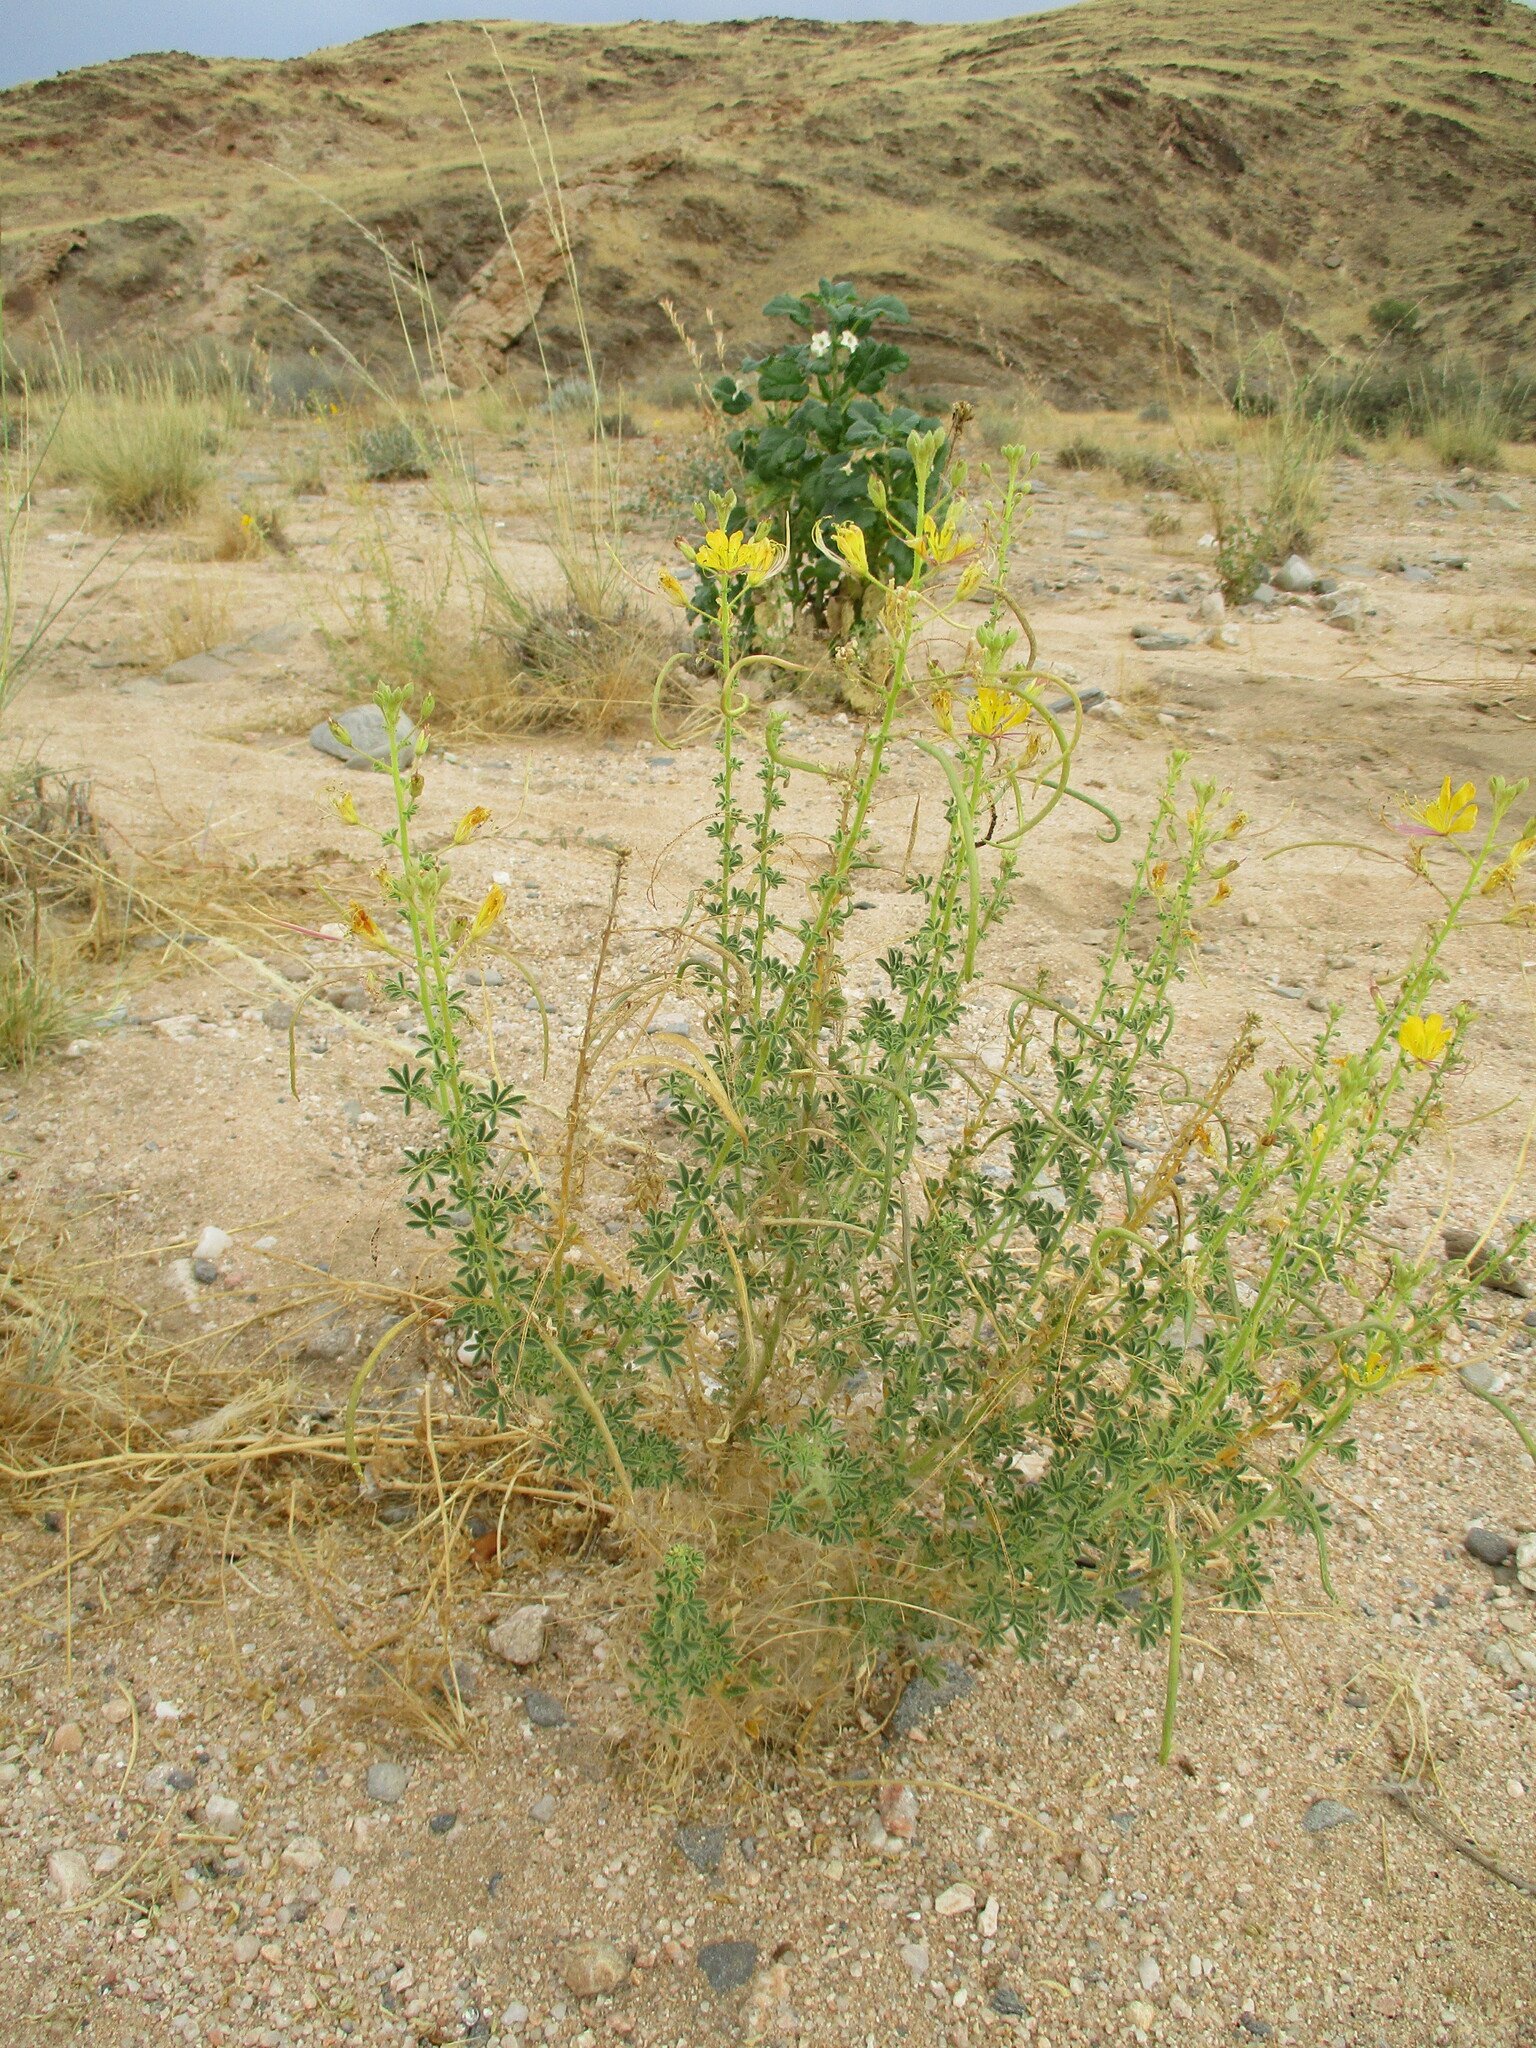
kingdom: Plantae
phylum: Tracheophyta
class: Magnoliopsida
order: Brassicales
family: Cleomaceae
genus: Cleome
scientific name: Cleome foliosa
